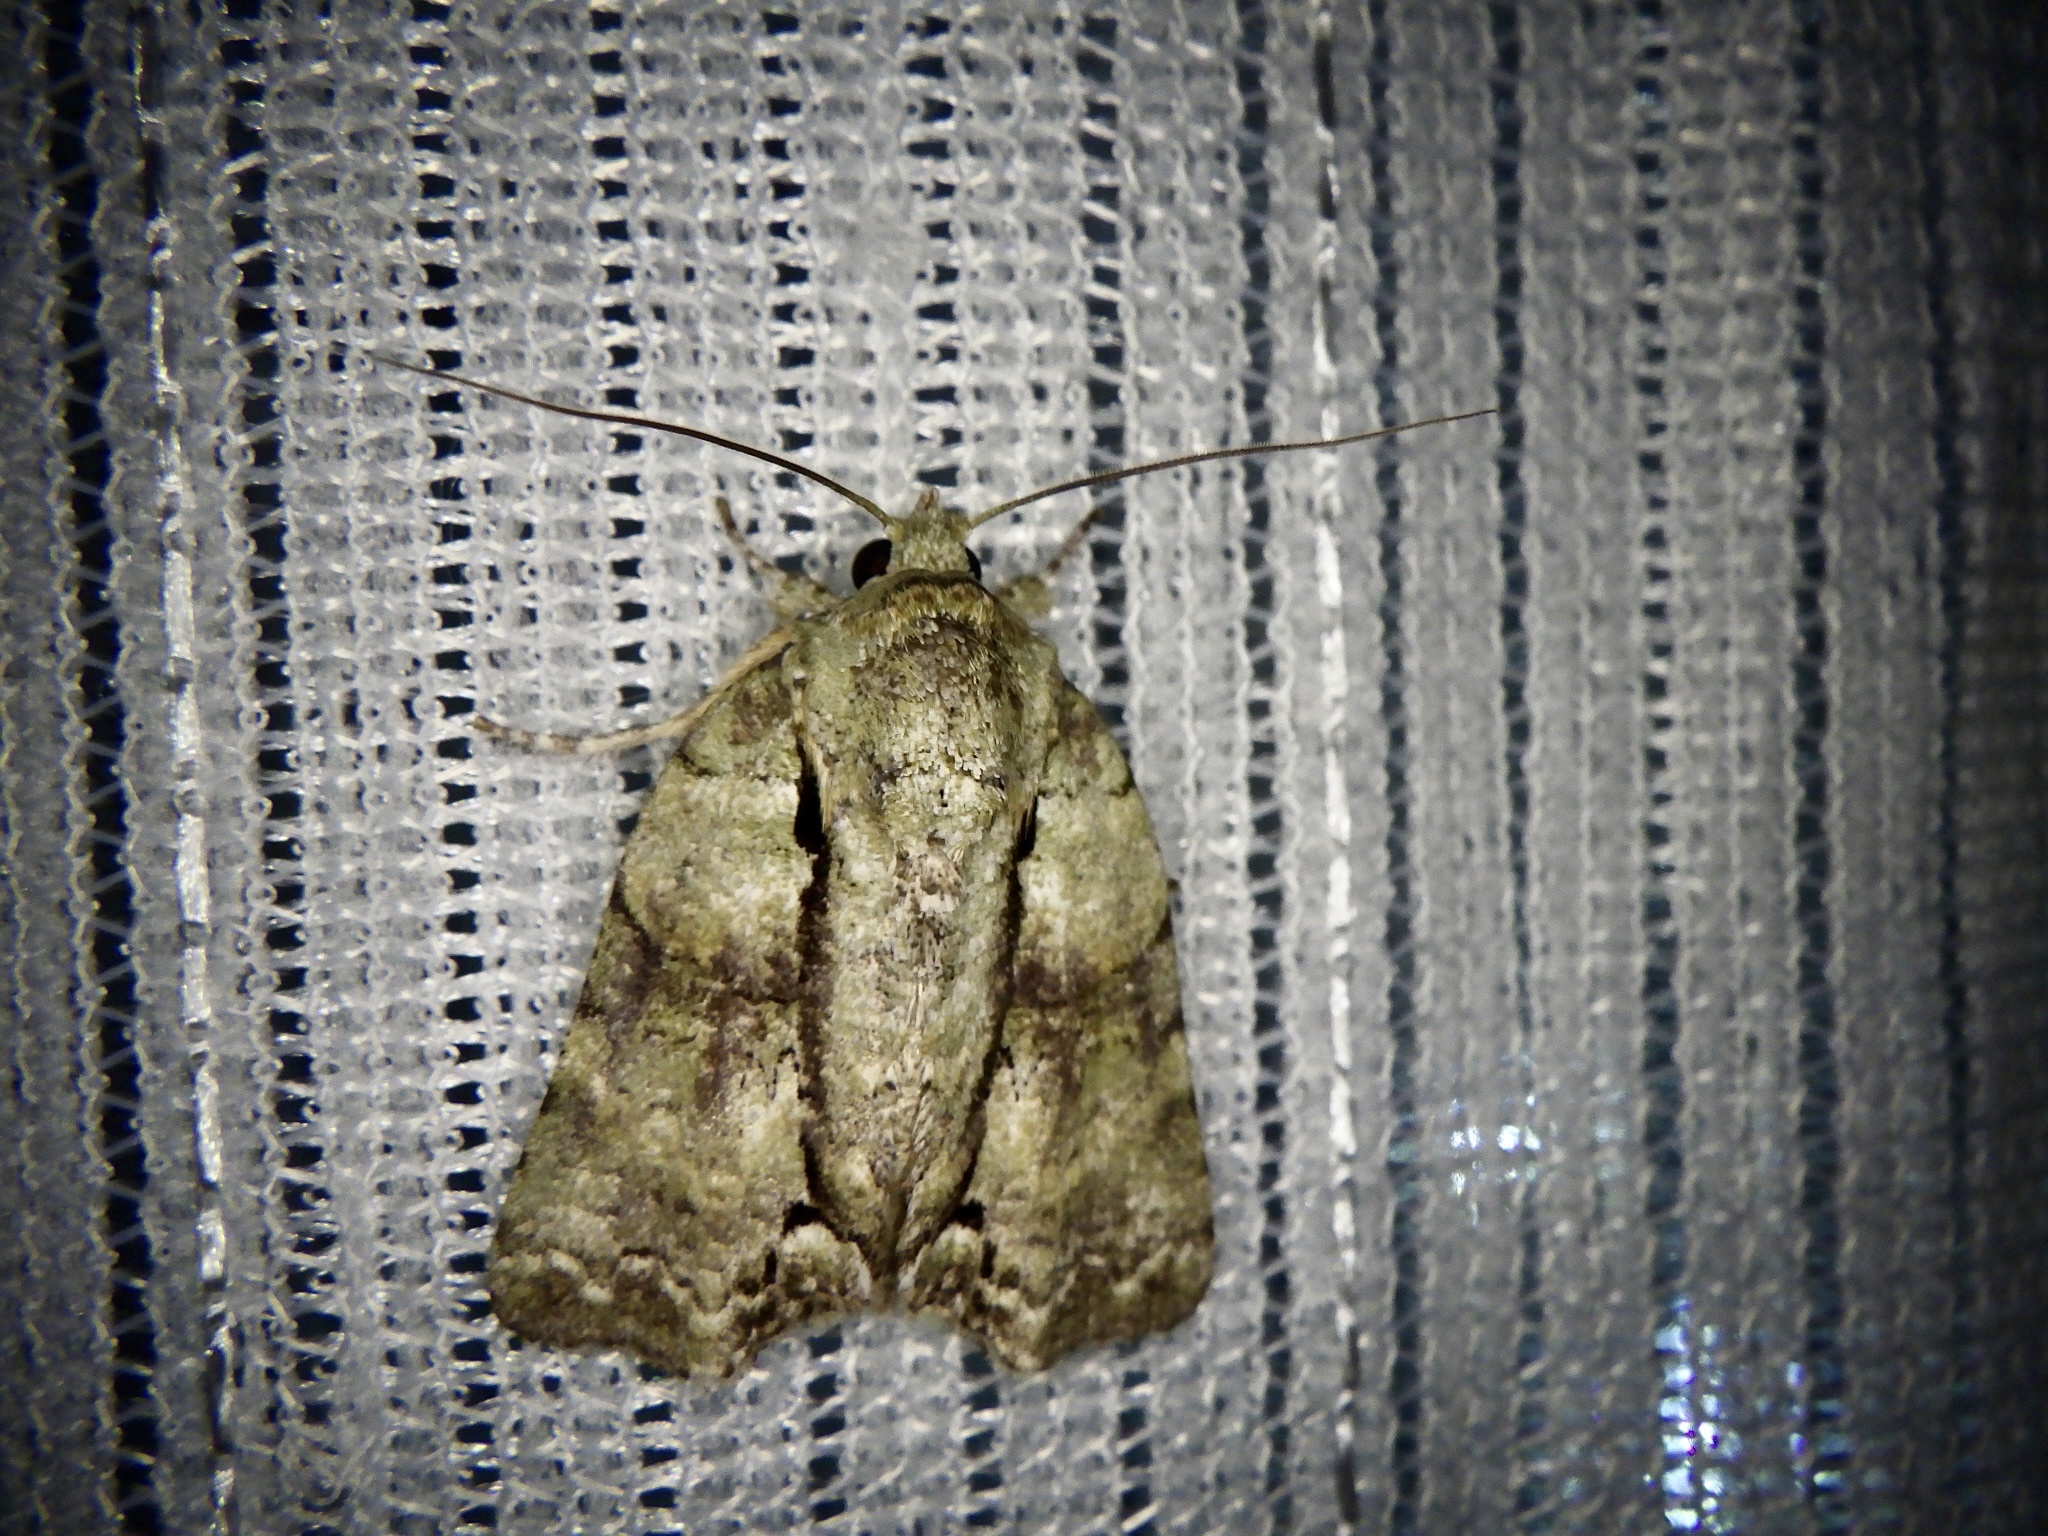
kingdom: Animalia
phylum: Arthropoda
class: Insecta
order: Lepidoptera
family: Nolidae
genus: Blenina
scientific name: Blenina senex
